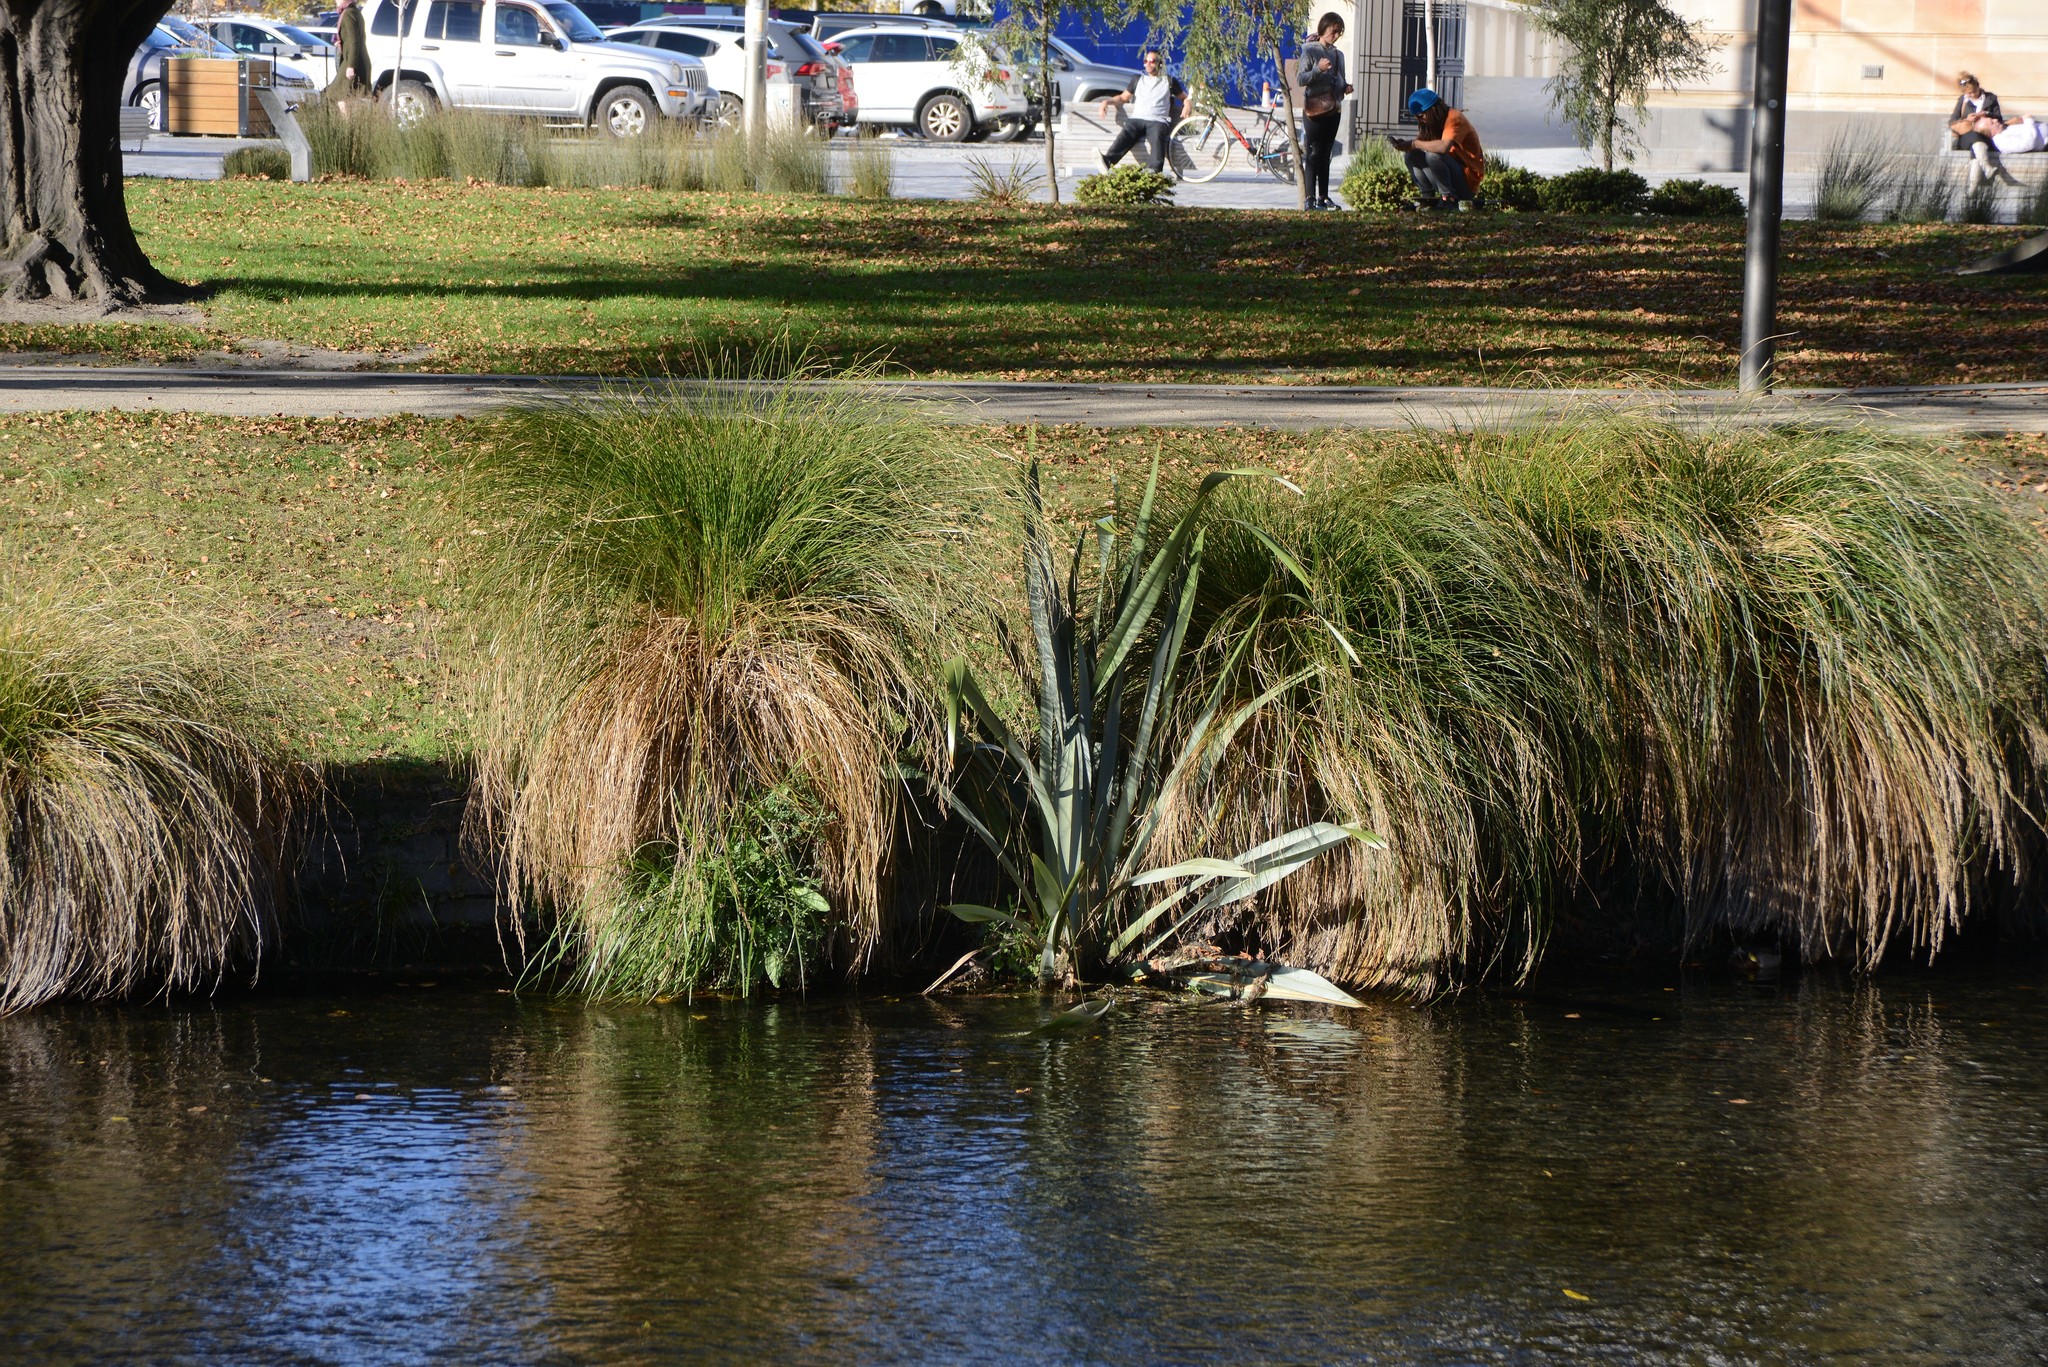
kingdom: Plantae
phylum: Tracheophyta
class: Liliopsida
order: Asparagales
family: Asphodelaceae
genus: Phormium
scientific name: Phormium tenax
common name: New zealand flax
